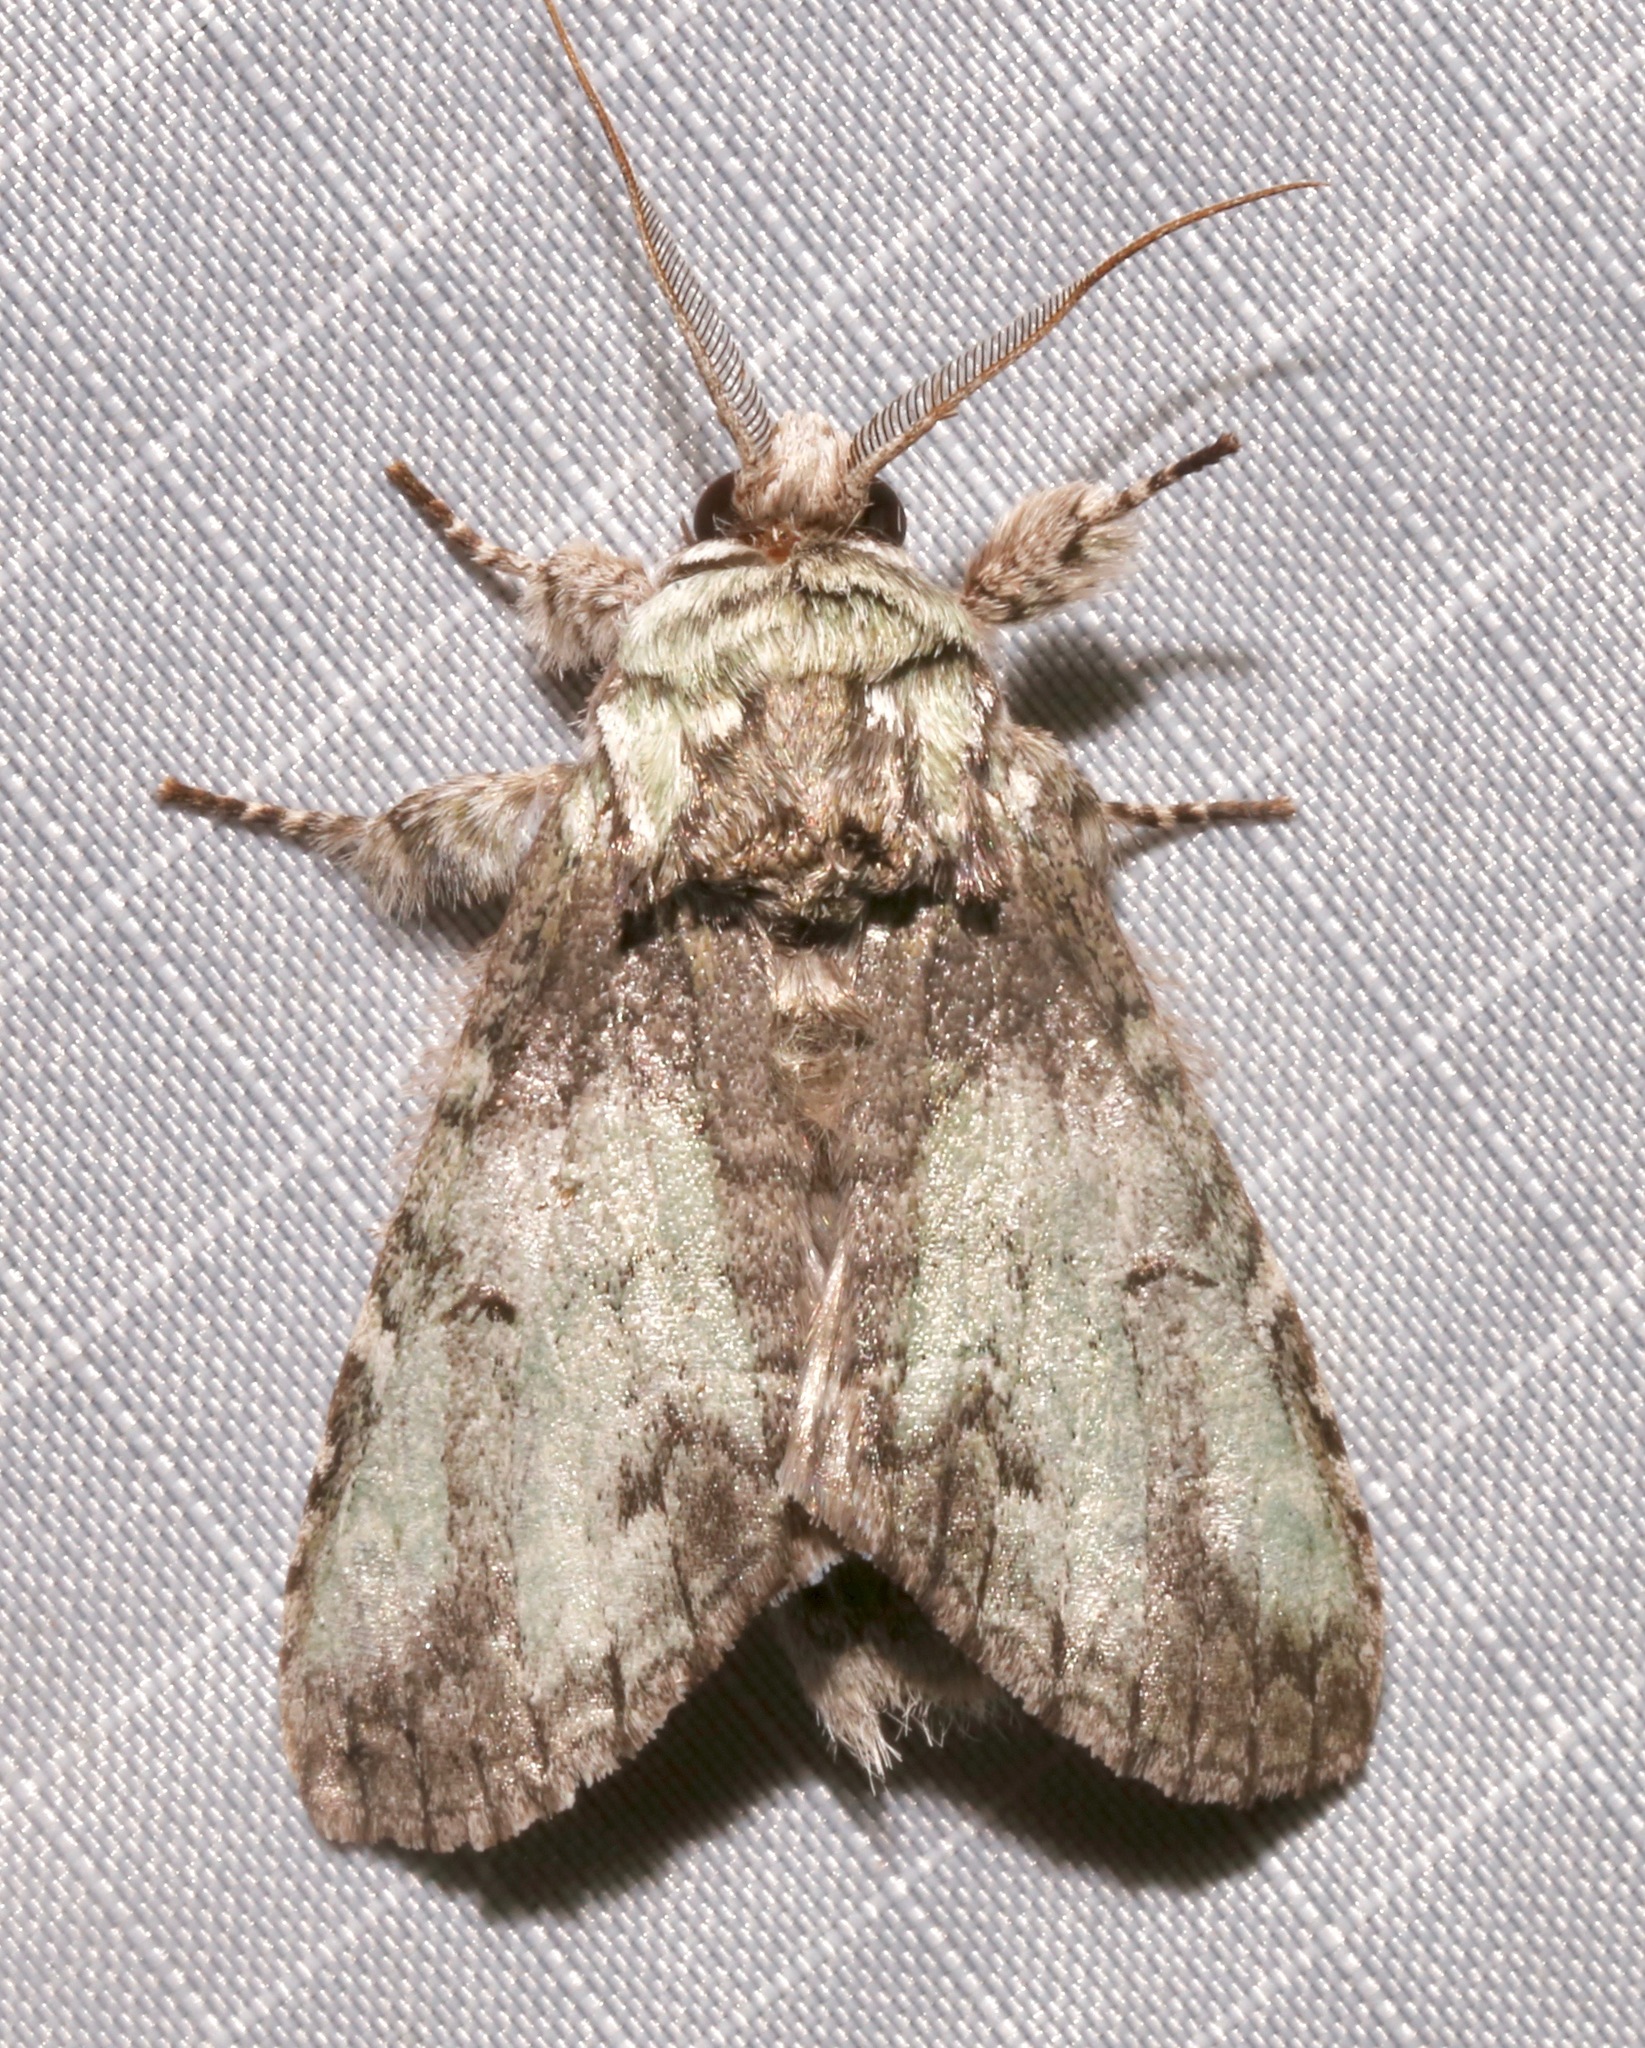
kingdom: Animalia
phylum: Arthropoda
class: Insecta
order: Lepidoptera
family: Notodontidae
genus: Macrurocampa
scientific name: Macrurocampa marthesia
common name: Mottled prominent
